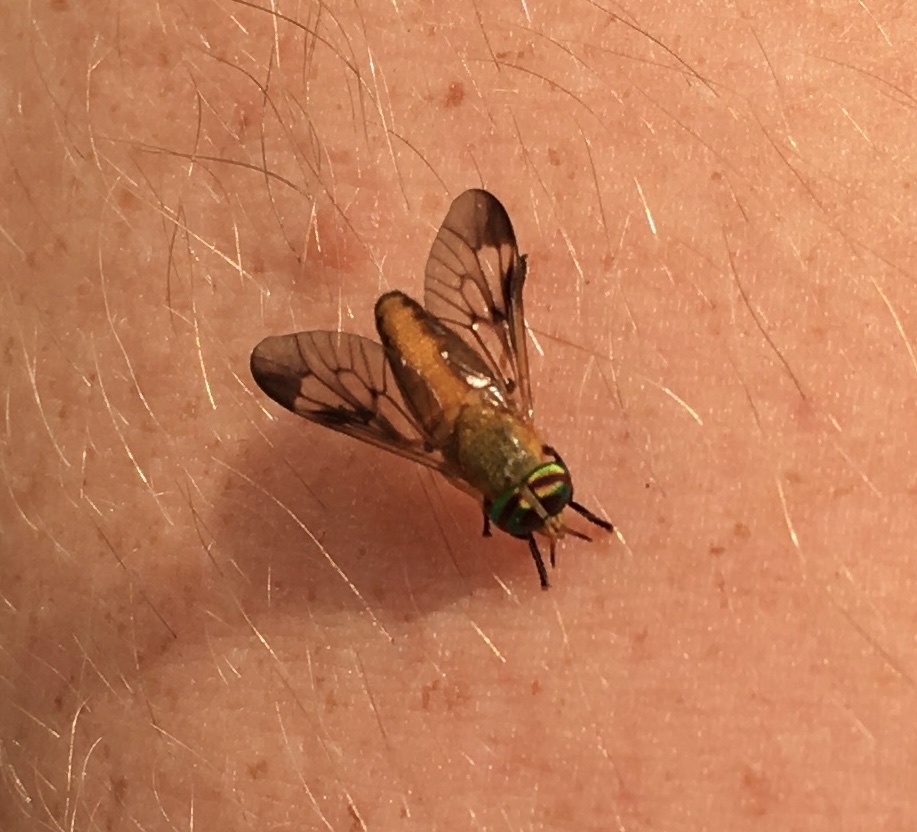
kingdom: Animalia
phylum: Arthropoda
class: Insecta
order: Diptera
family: Tabanidae
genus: Diachlorus
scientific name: Diachlorus ferrugatus
